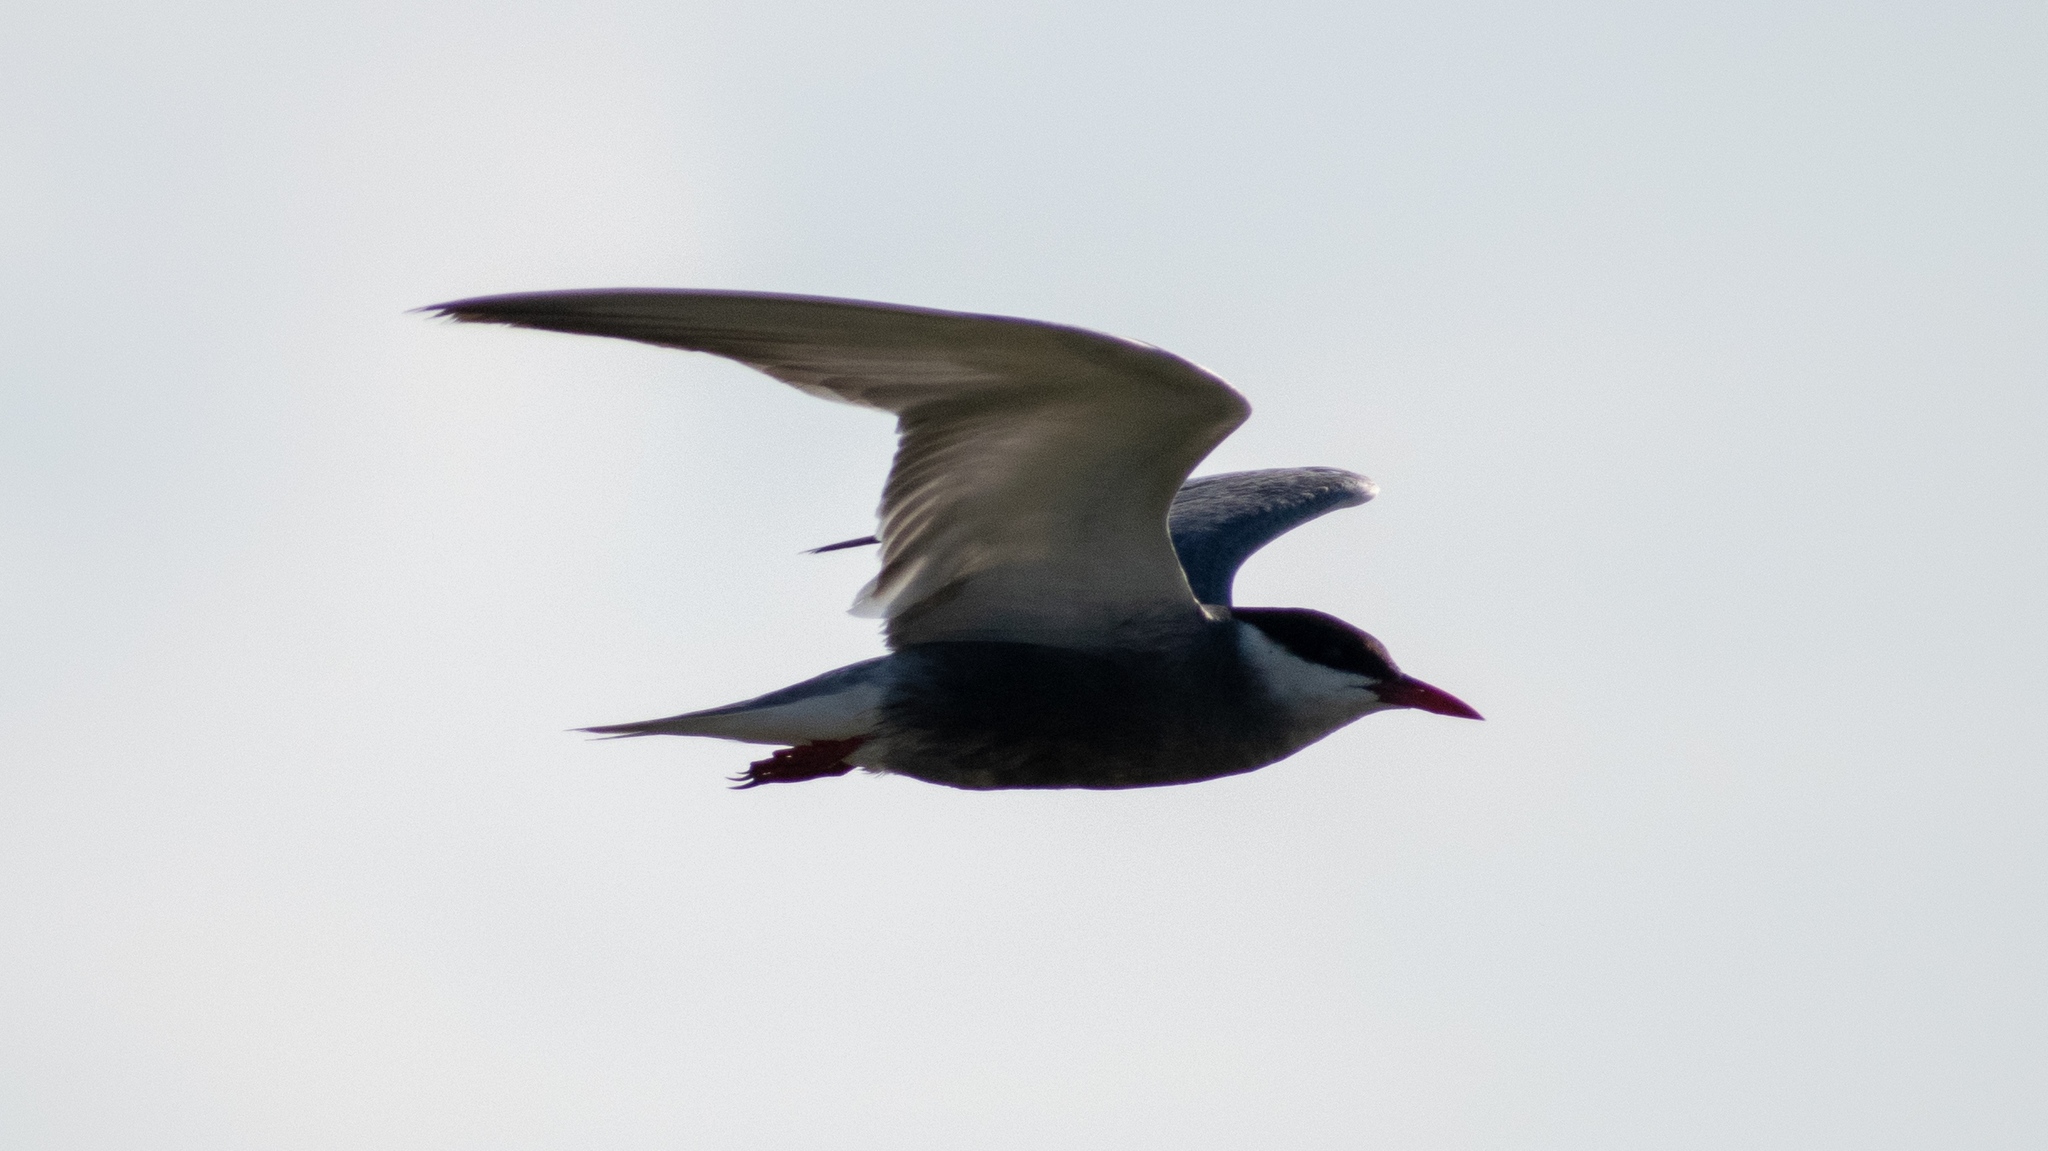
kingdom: Animalia
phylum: Chordata
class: Aves
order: Charadriiformes
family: Laridae
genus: Chlidonias
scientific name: Chlidonias hybrida
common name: Whiskered tern
